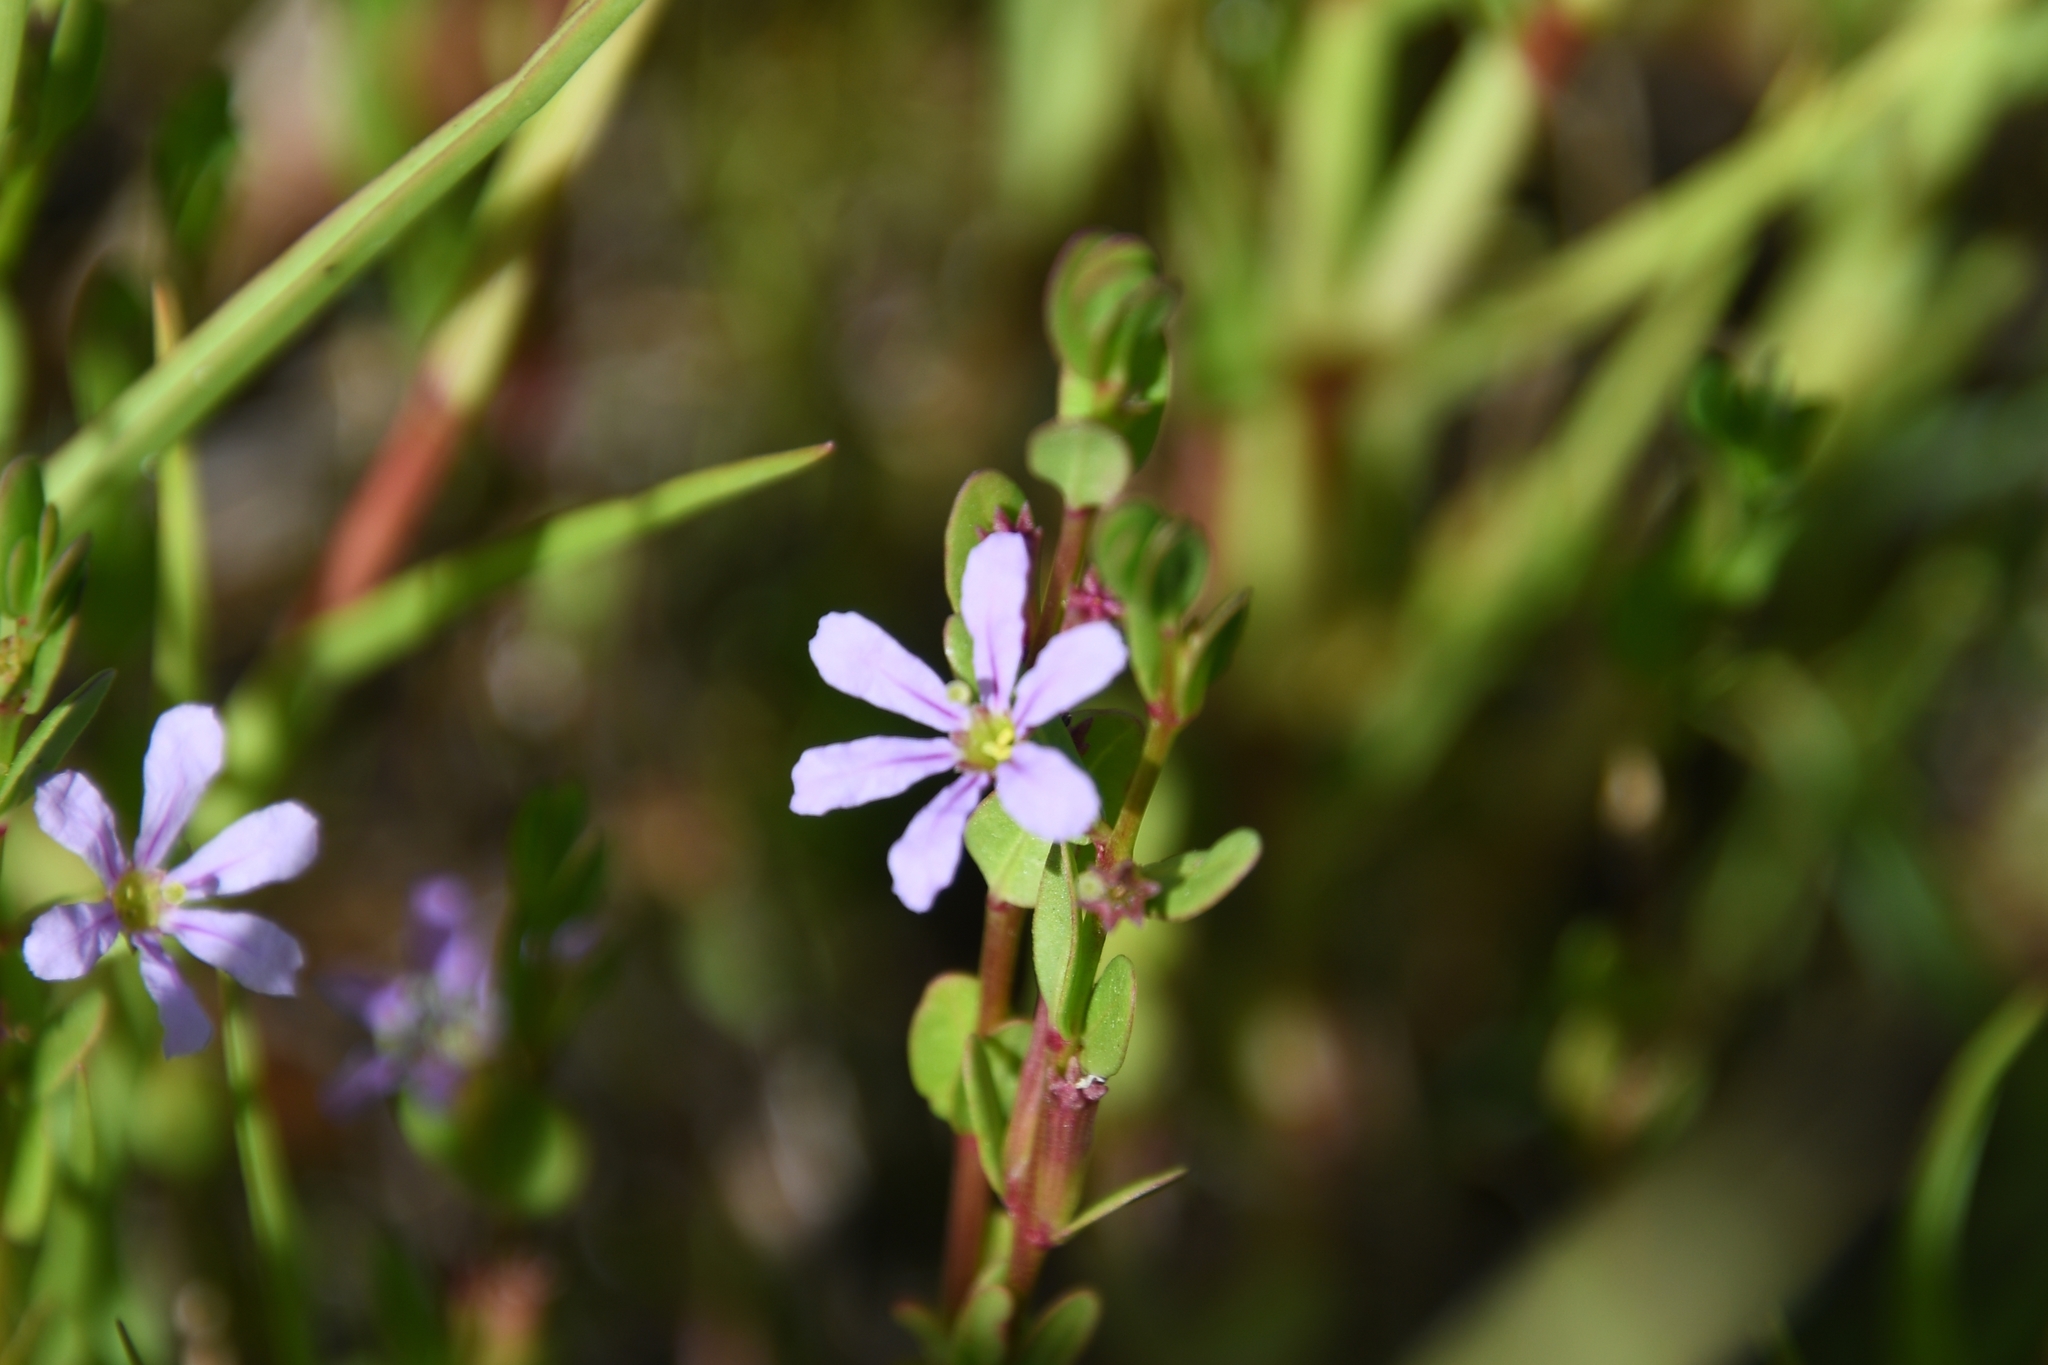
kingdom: Plantae
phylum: Tracheophyta
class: Magnoliopsida
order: Myrtales
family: Lythraceae
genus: Lythrum
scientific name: Lythrum flagellare
